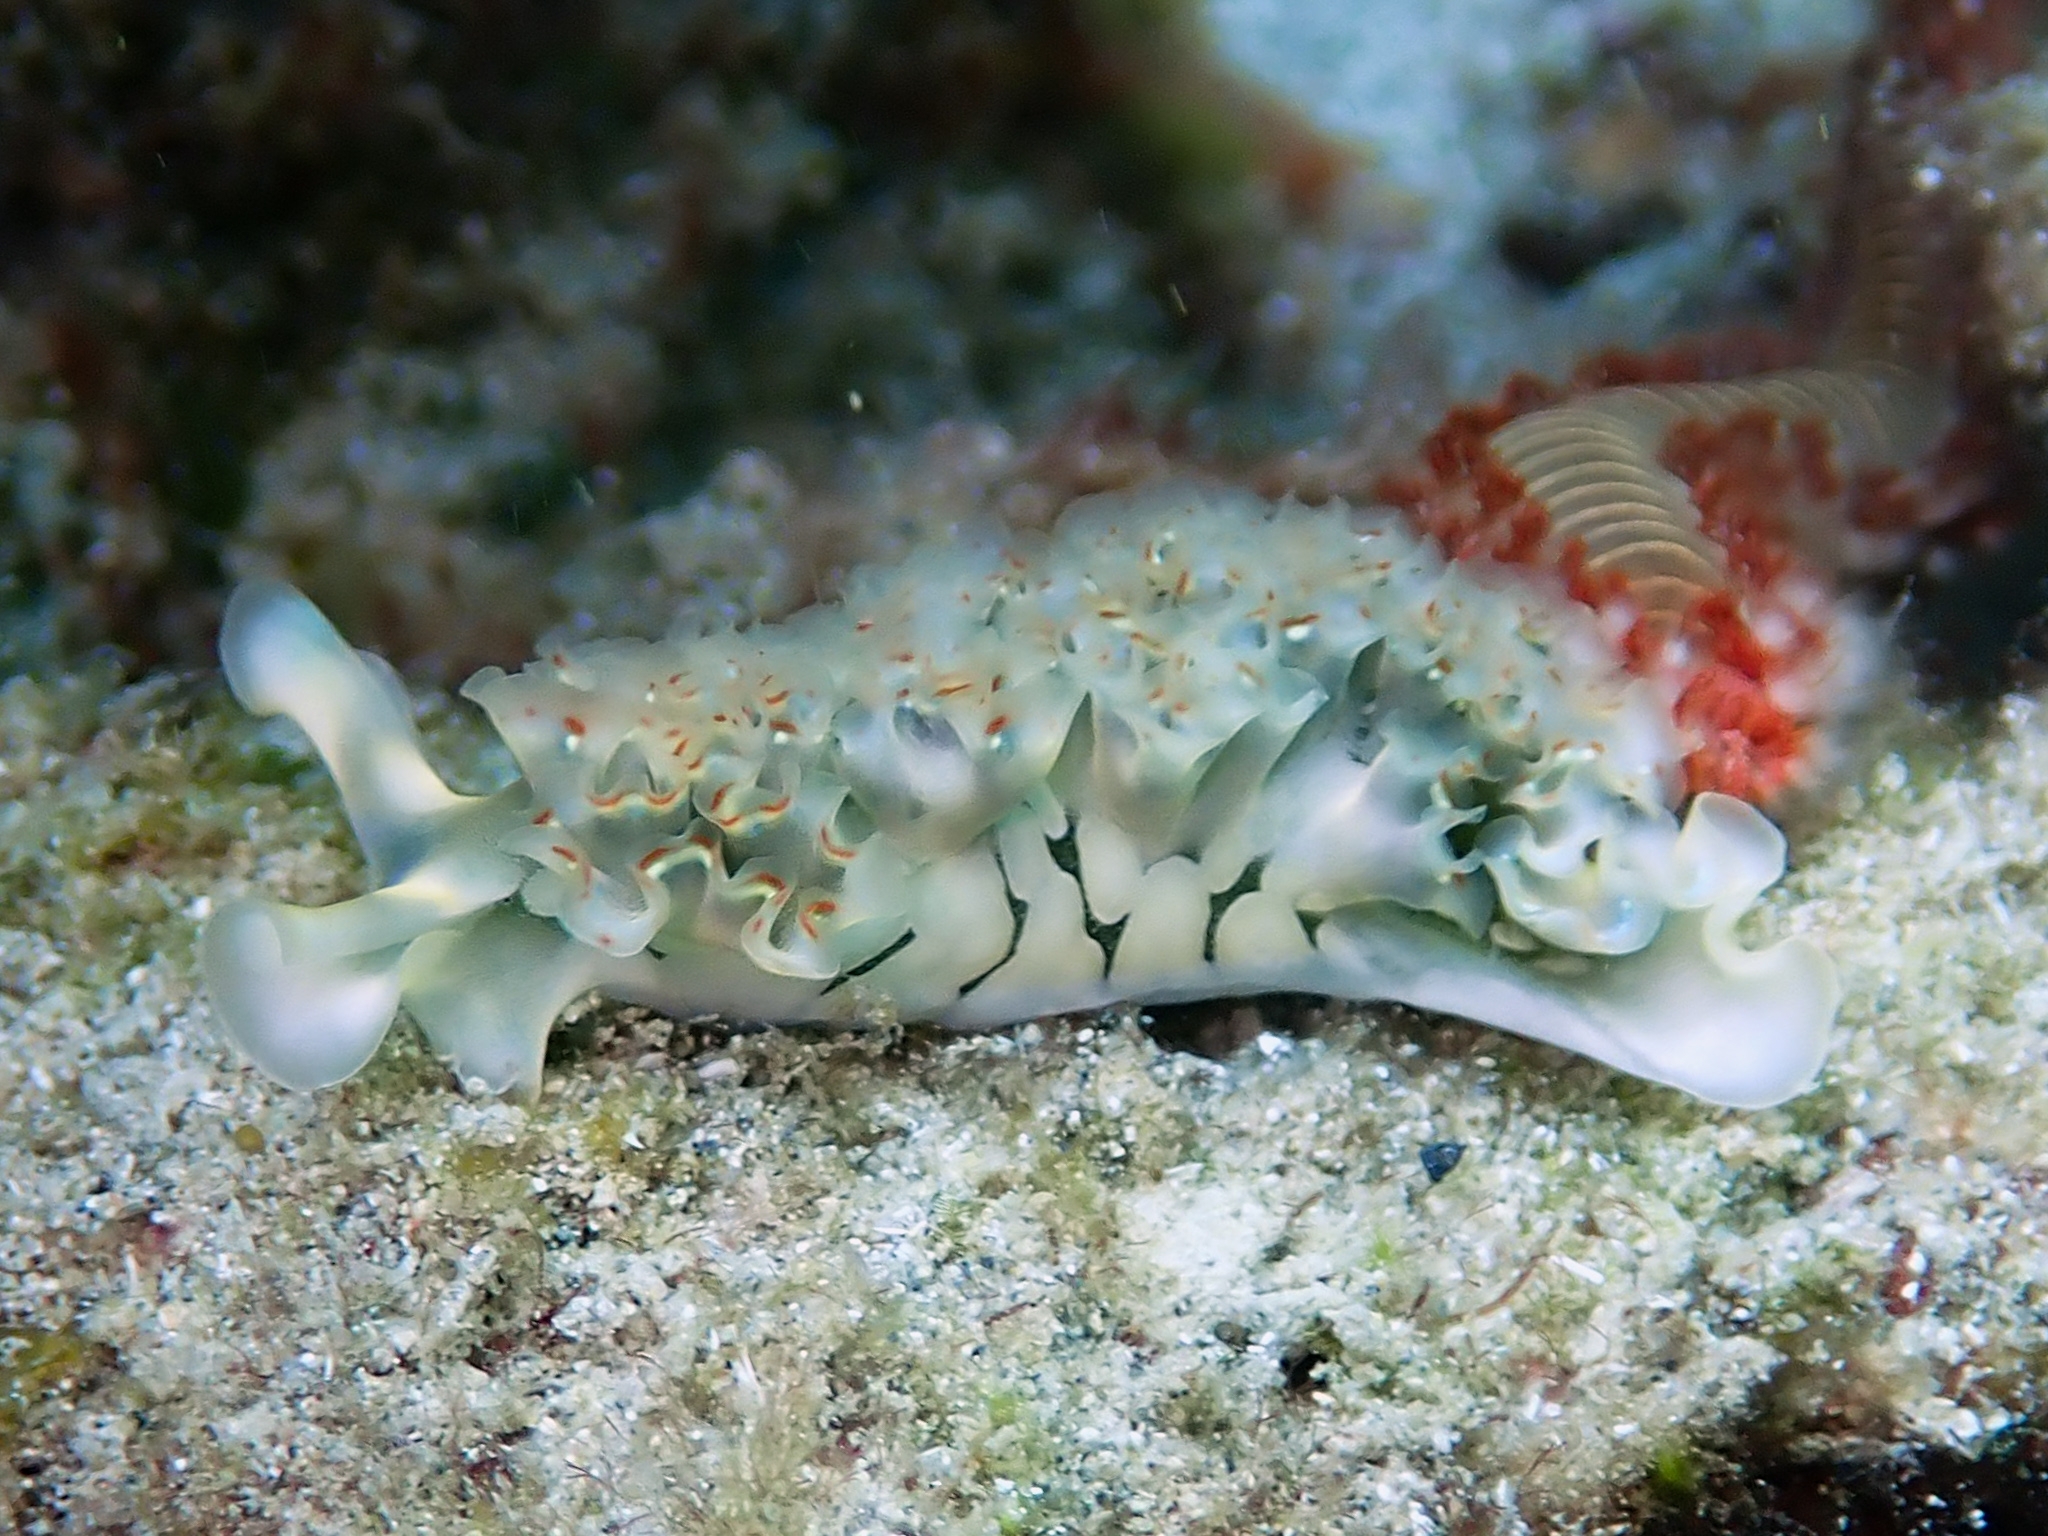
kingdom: Animalia
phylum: Mollusca
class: Gastropoda
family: Plakobranchidae
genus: Elysia
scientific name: Elysia crispata
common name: Lettuce slug
